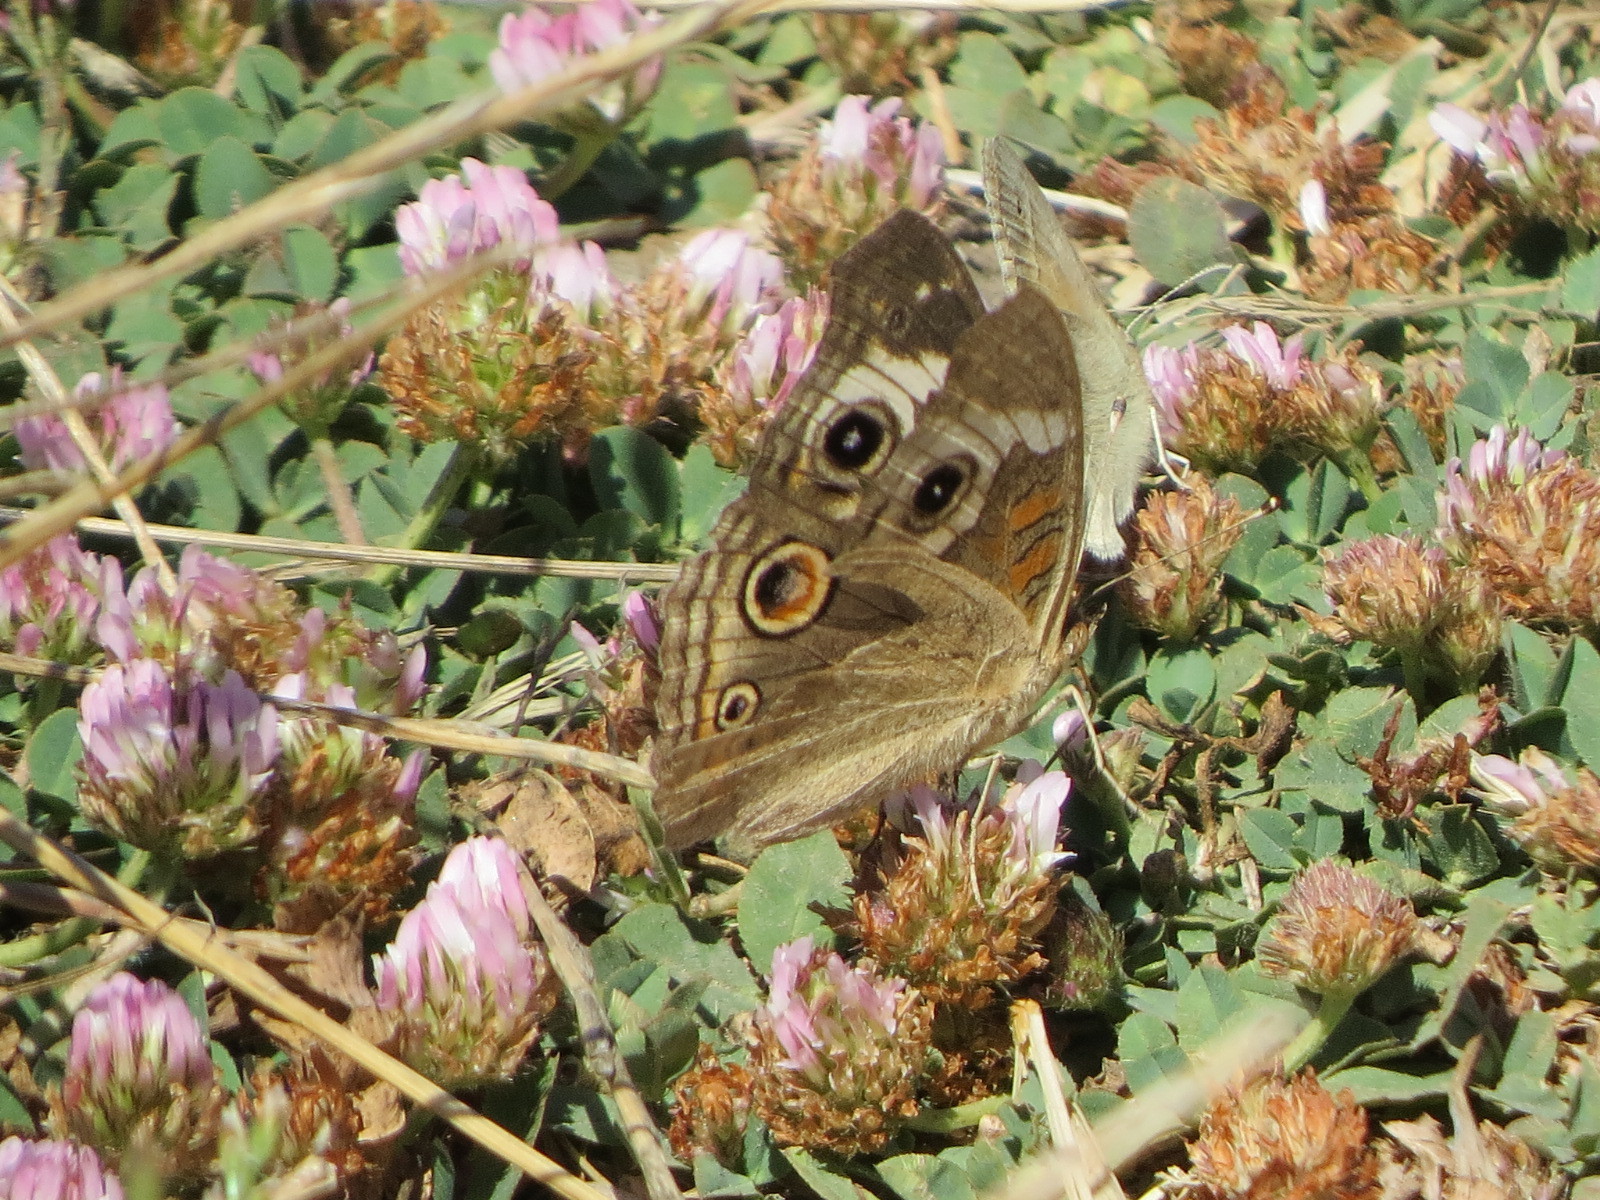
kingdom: Animalia
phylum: Arthropoda
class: Insecta
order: Lepidoptera
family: Nymphalidae
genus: Junonia
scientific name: Junonia grisea
